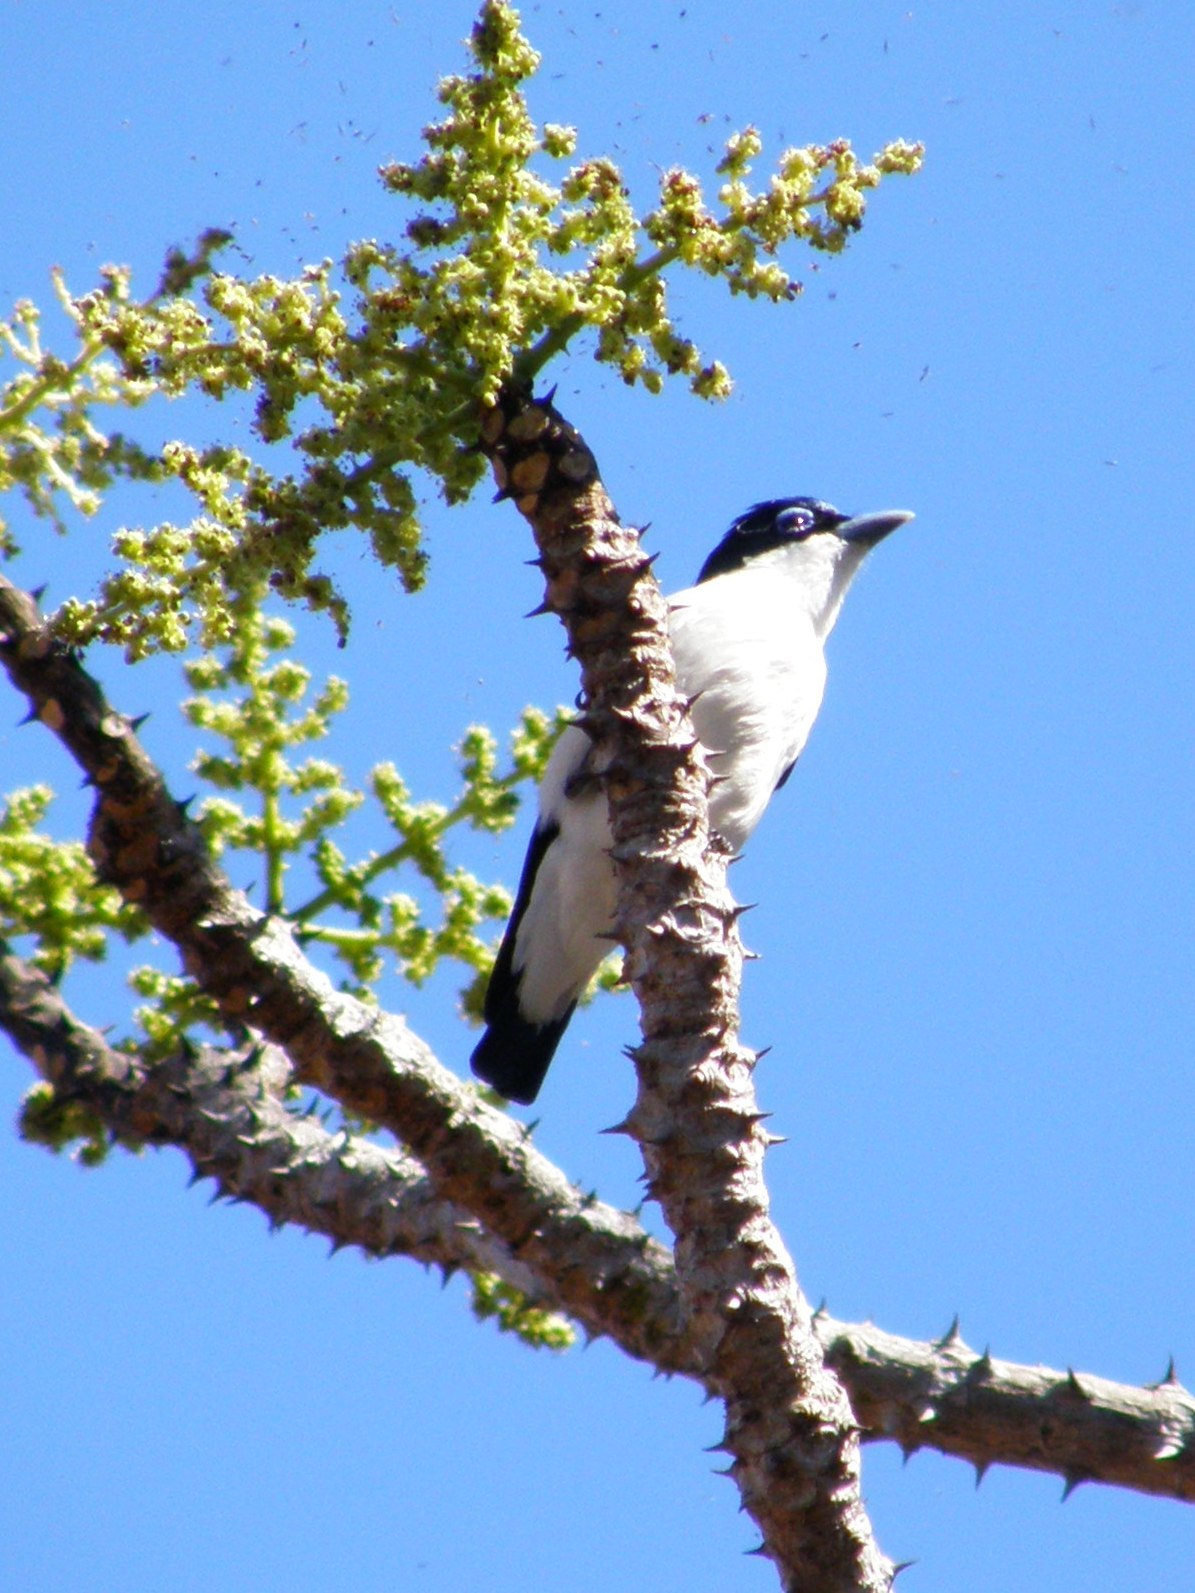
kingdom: Animalia
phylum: Chordata
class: Aves
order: Passeriformes
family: Vangidae
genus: Leptopterus
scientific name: Leptopterus chabert
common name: Chabert vanga
